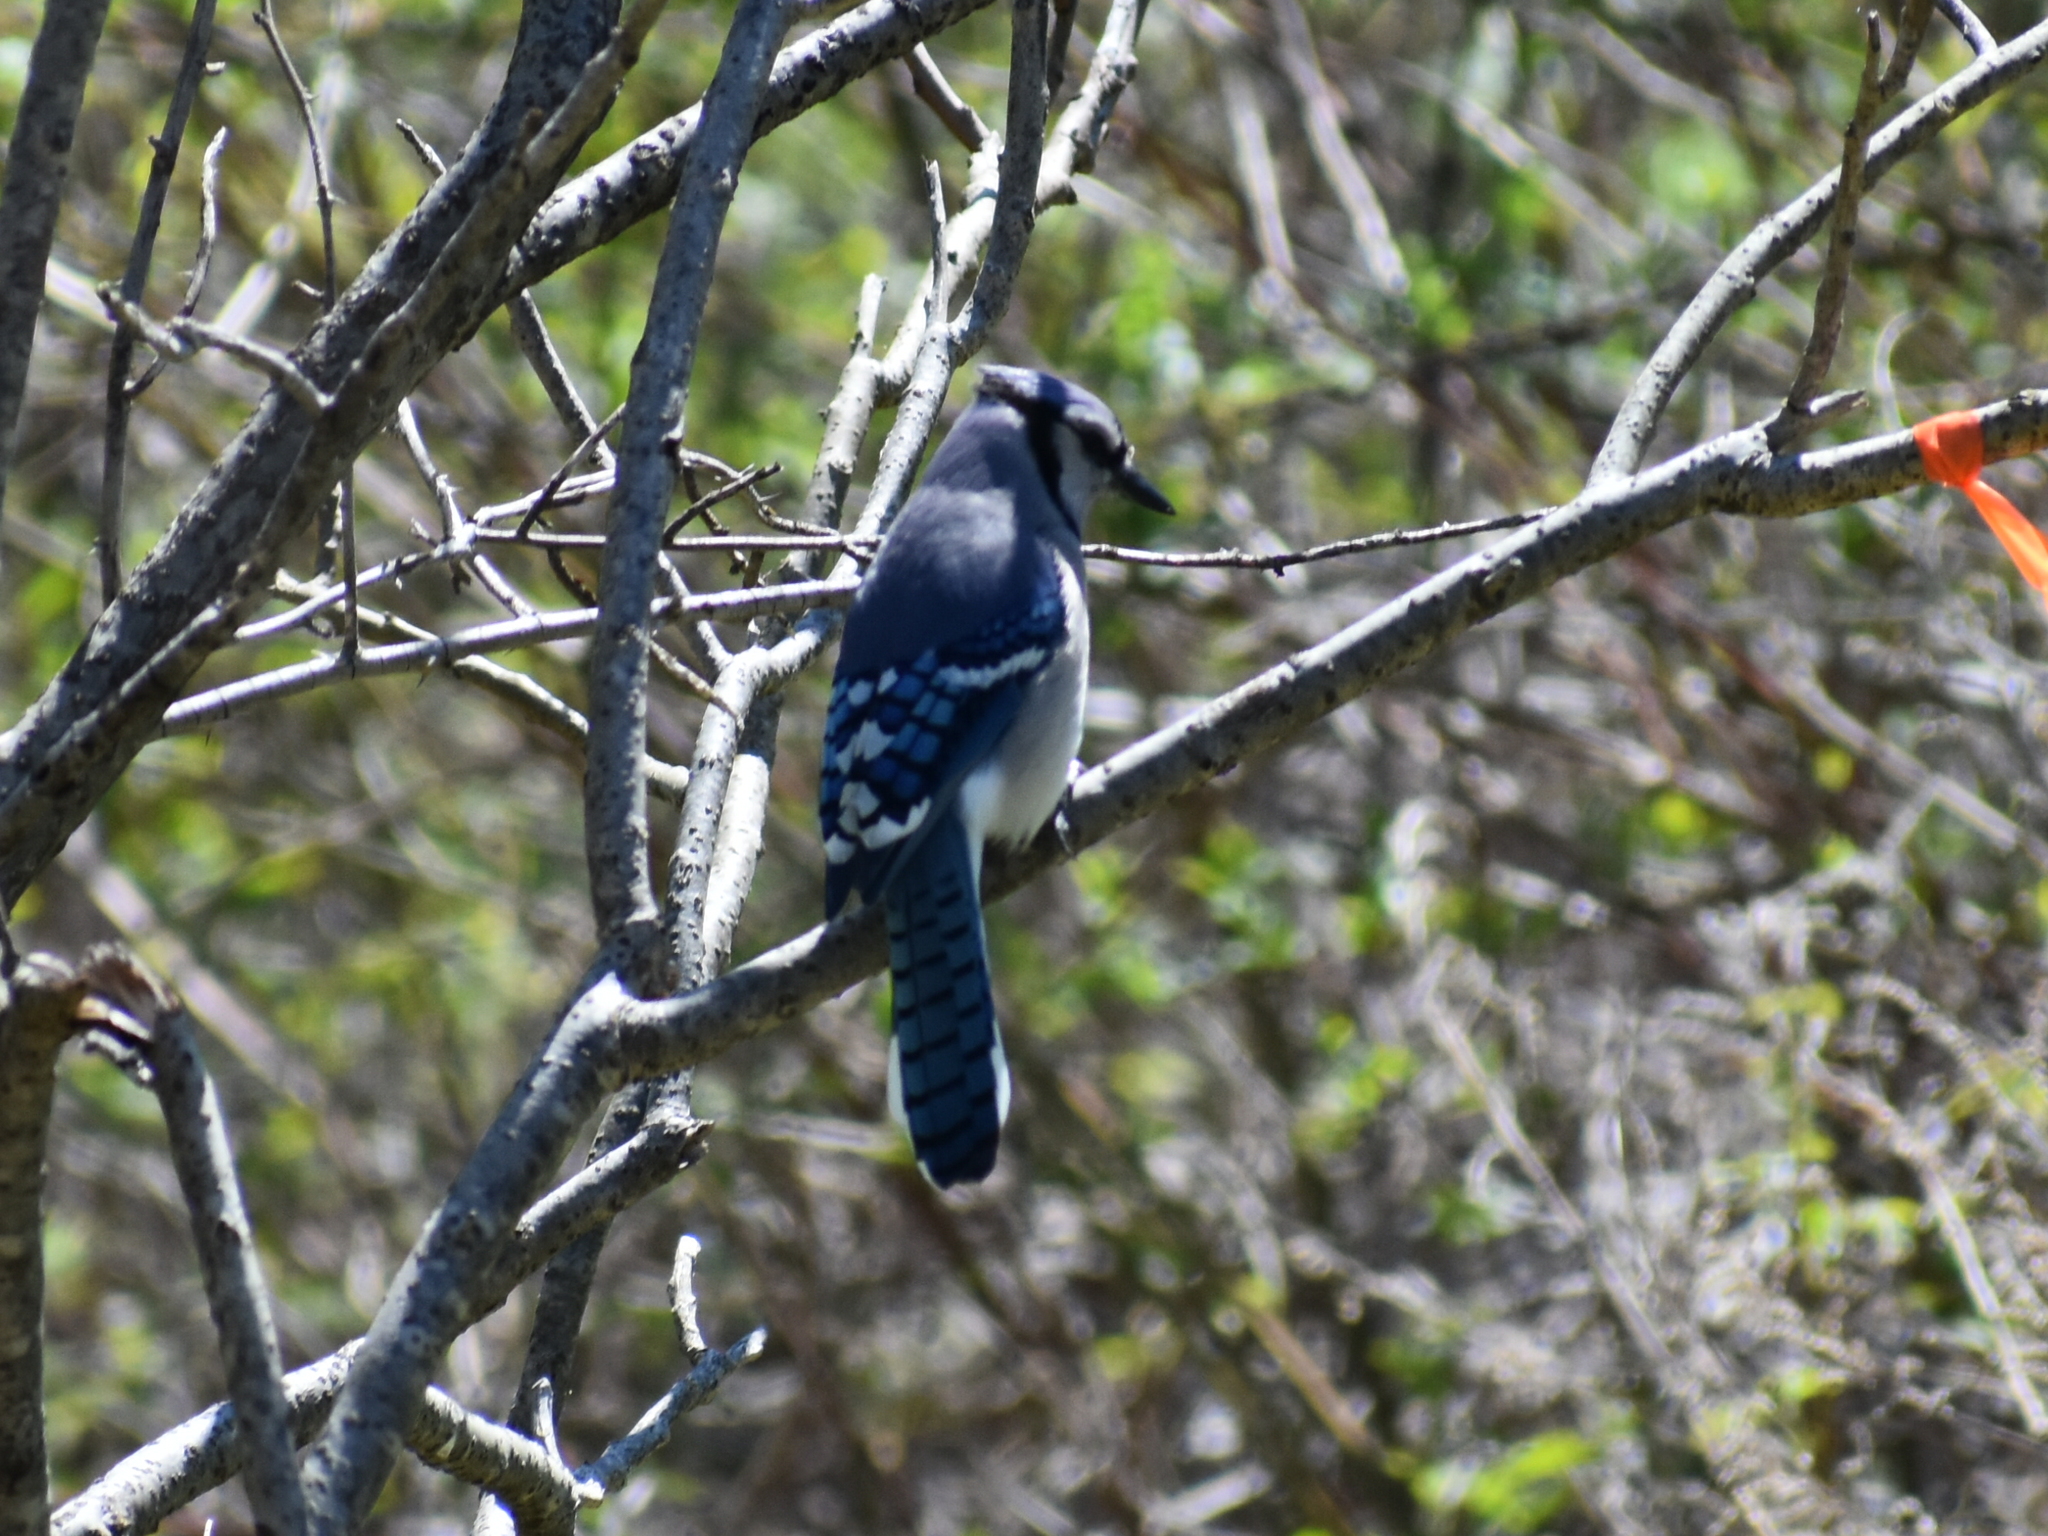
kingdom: Animalia
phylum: Chordata
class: Aves
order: Passeriformes
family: Corvidae
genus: Cyanocitta
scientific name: Cyanocitta cristata
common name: Blue jay
